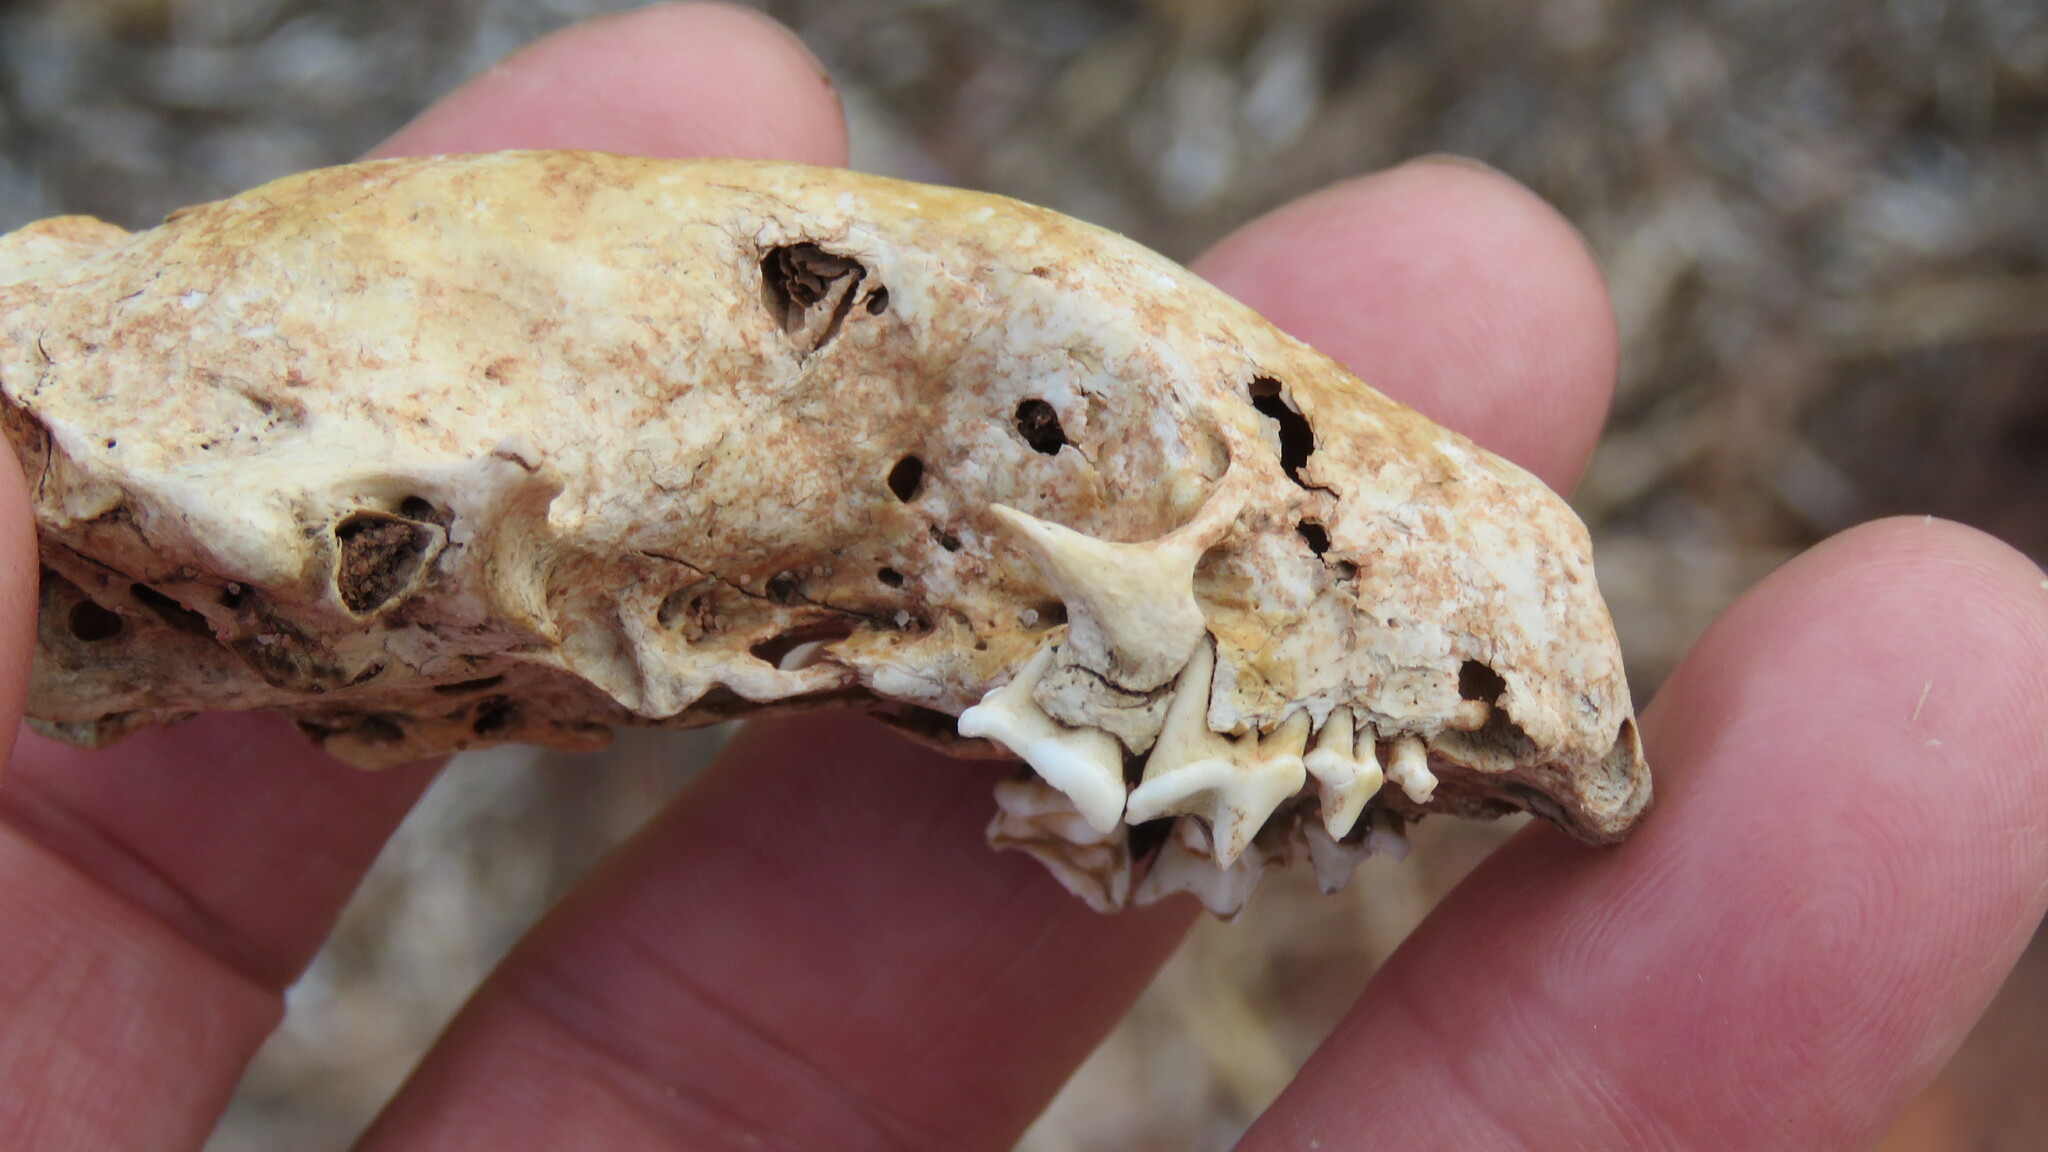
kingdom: Animalia
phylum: Chordata
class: Mammalia
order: Carnivora
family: Mephitidae
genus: Mephitis
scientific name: Mephitis mephitis
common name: Striped skunk
